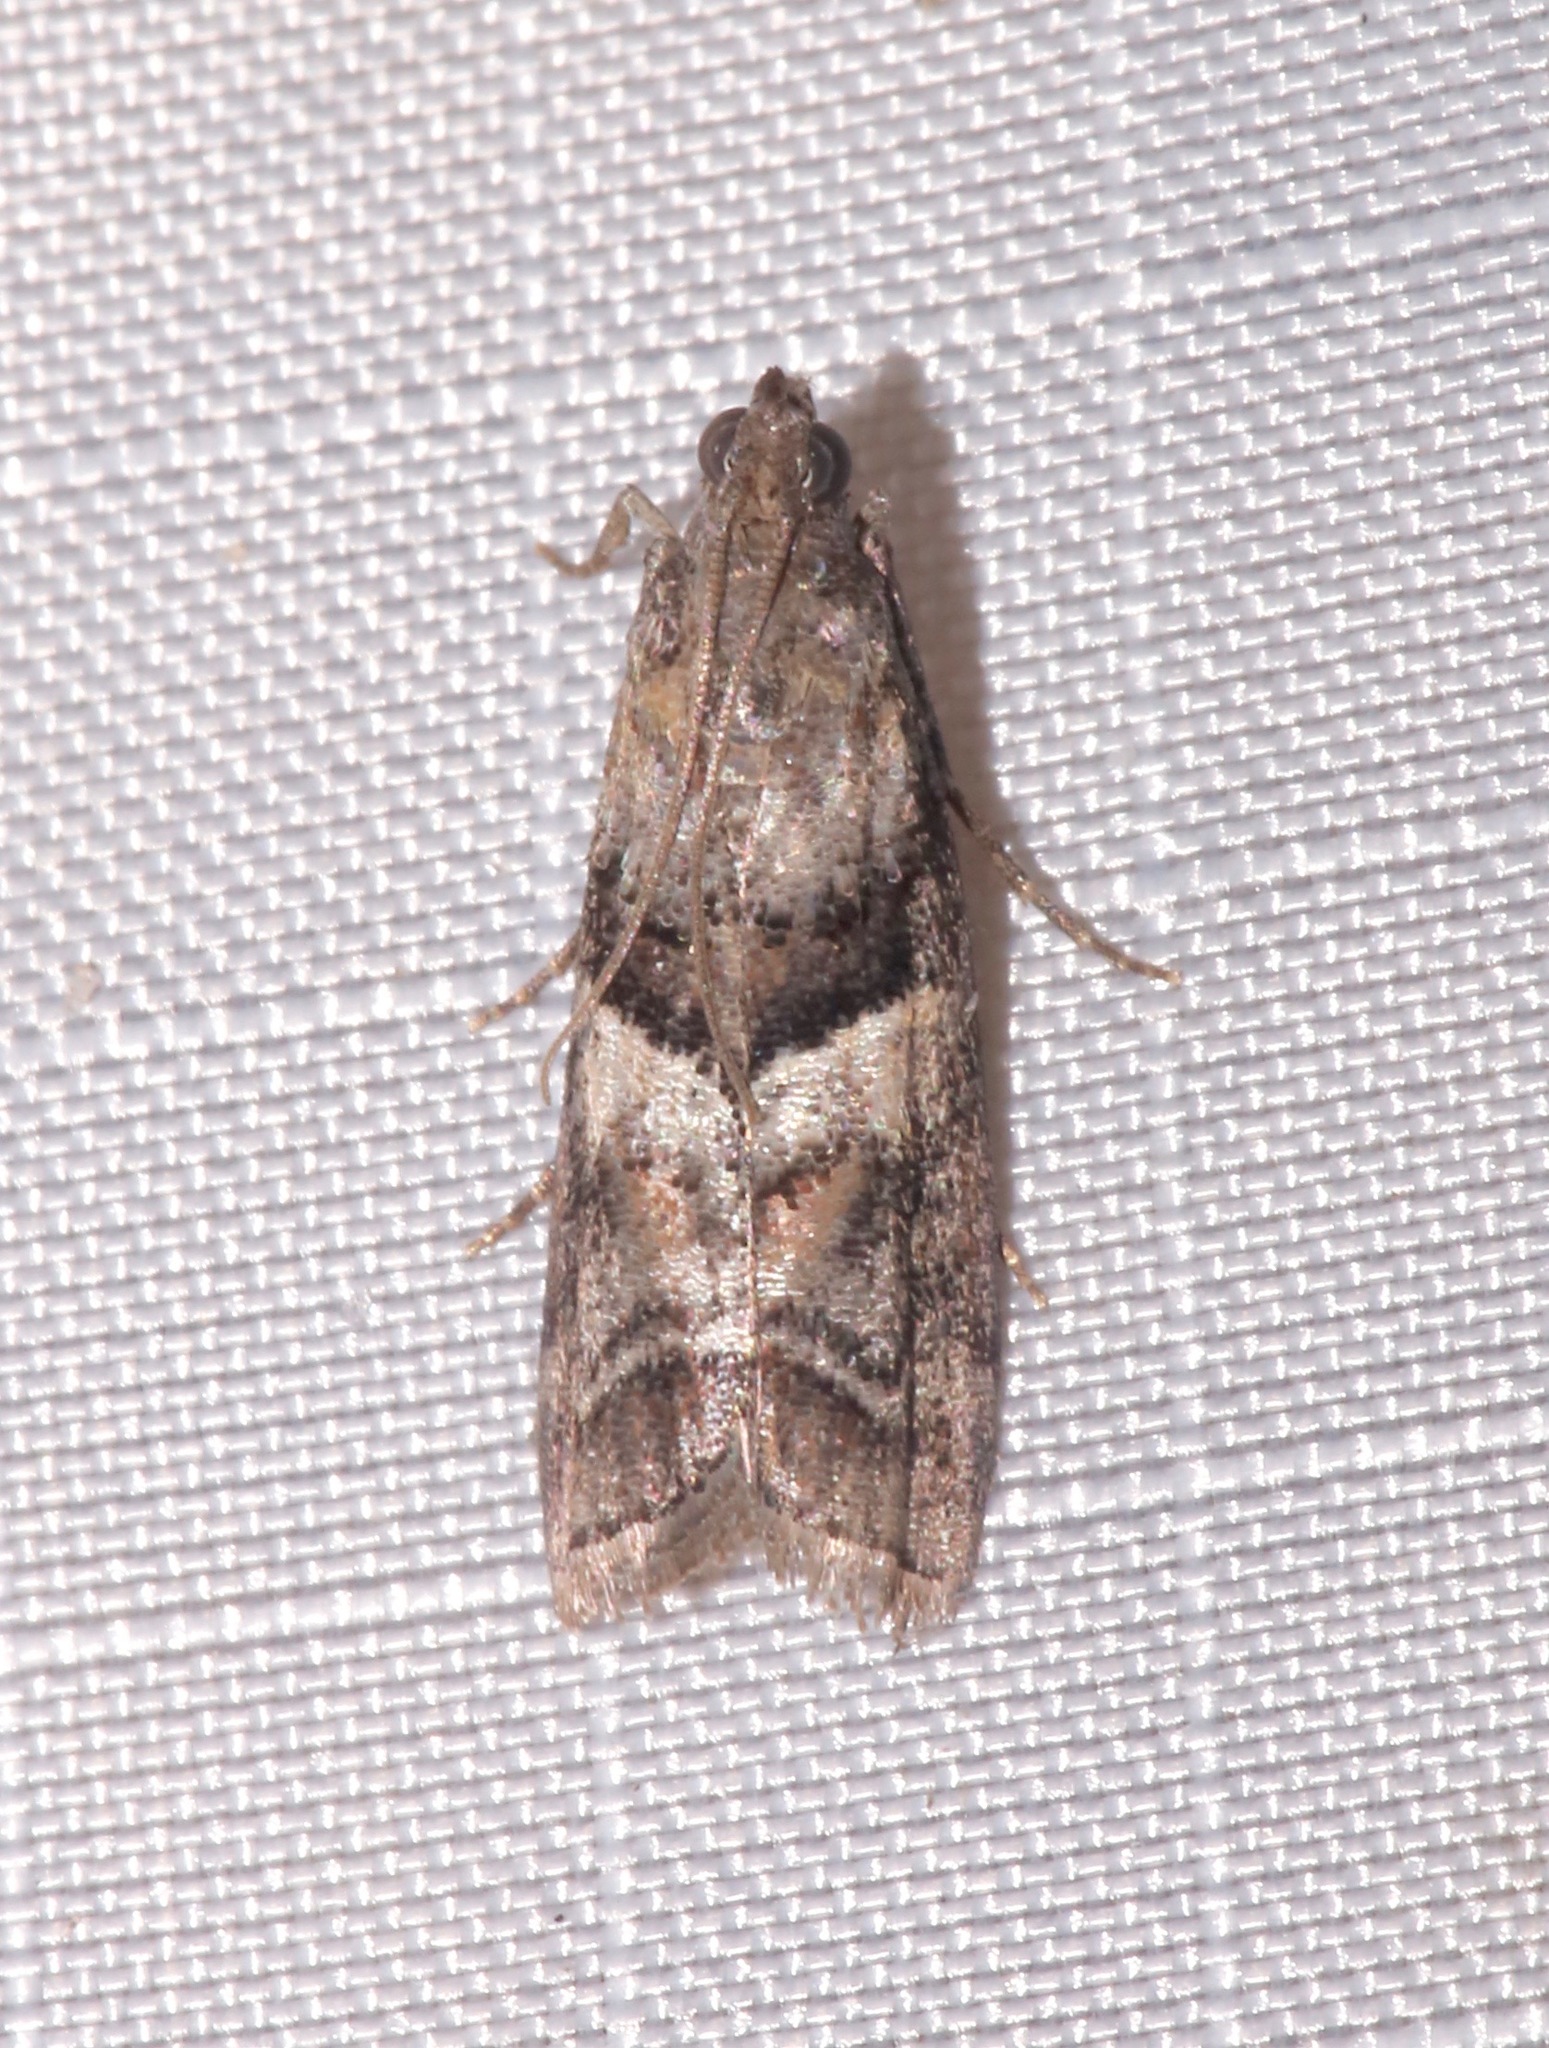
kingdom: Animalia
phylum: Arthropoda
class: Insecta
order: Lepidoptera
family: Pyralidae
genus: Dioryctria
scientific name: Dioryctria clarioralis
